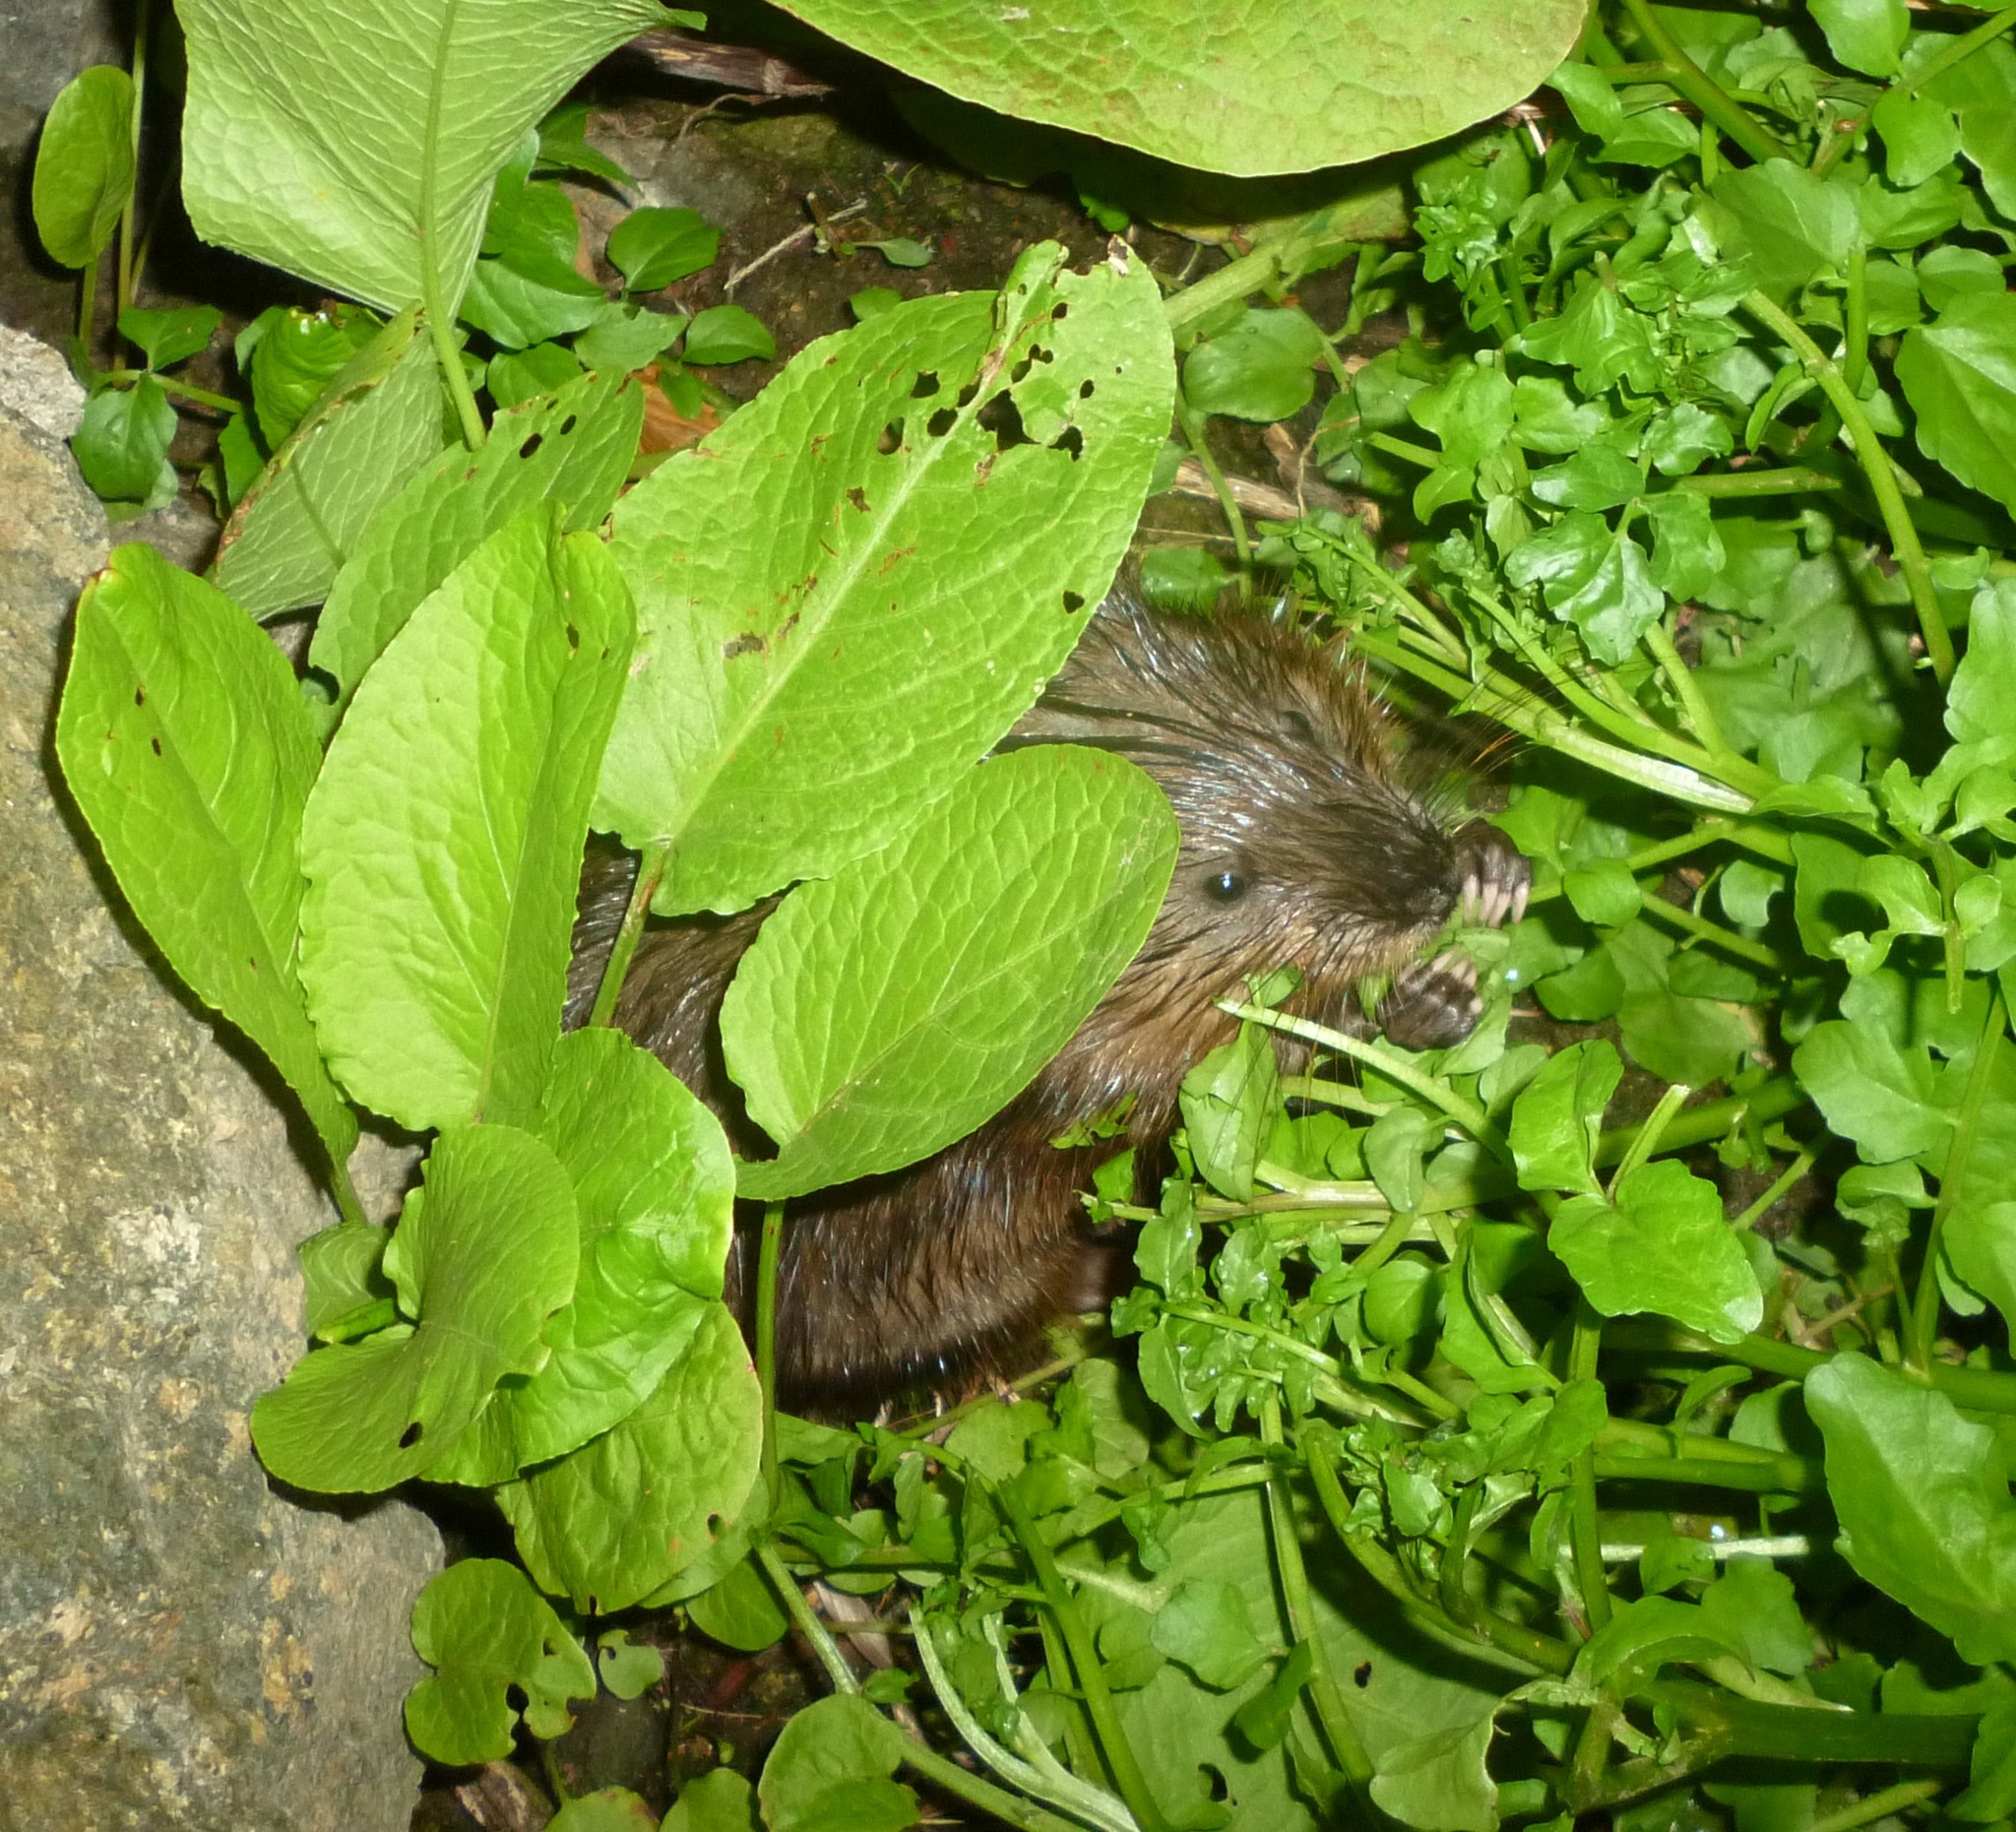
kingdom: Animalia
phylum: Chordata
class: Mammalia
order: Rodentia
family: Cricetidae
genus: Ondatra
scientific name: Ondatra zibethicus
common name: Muskrat
